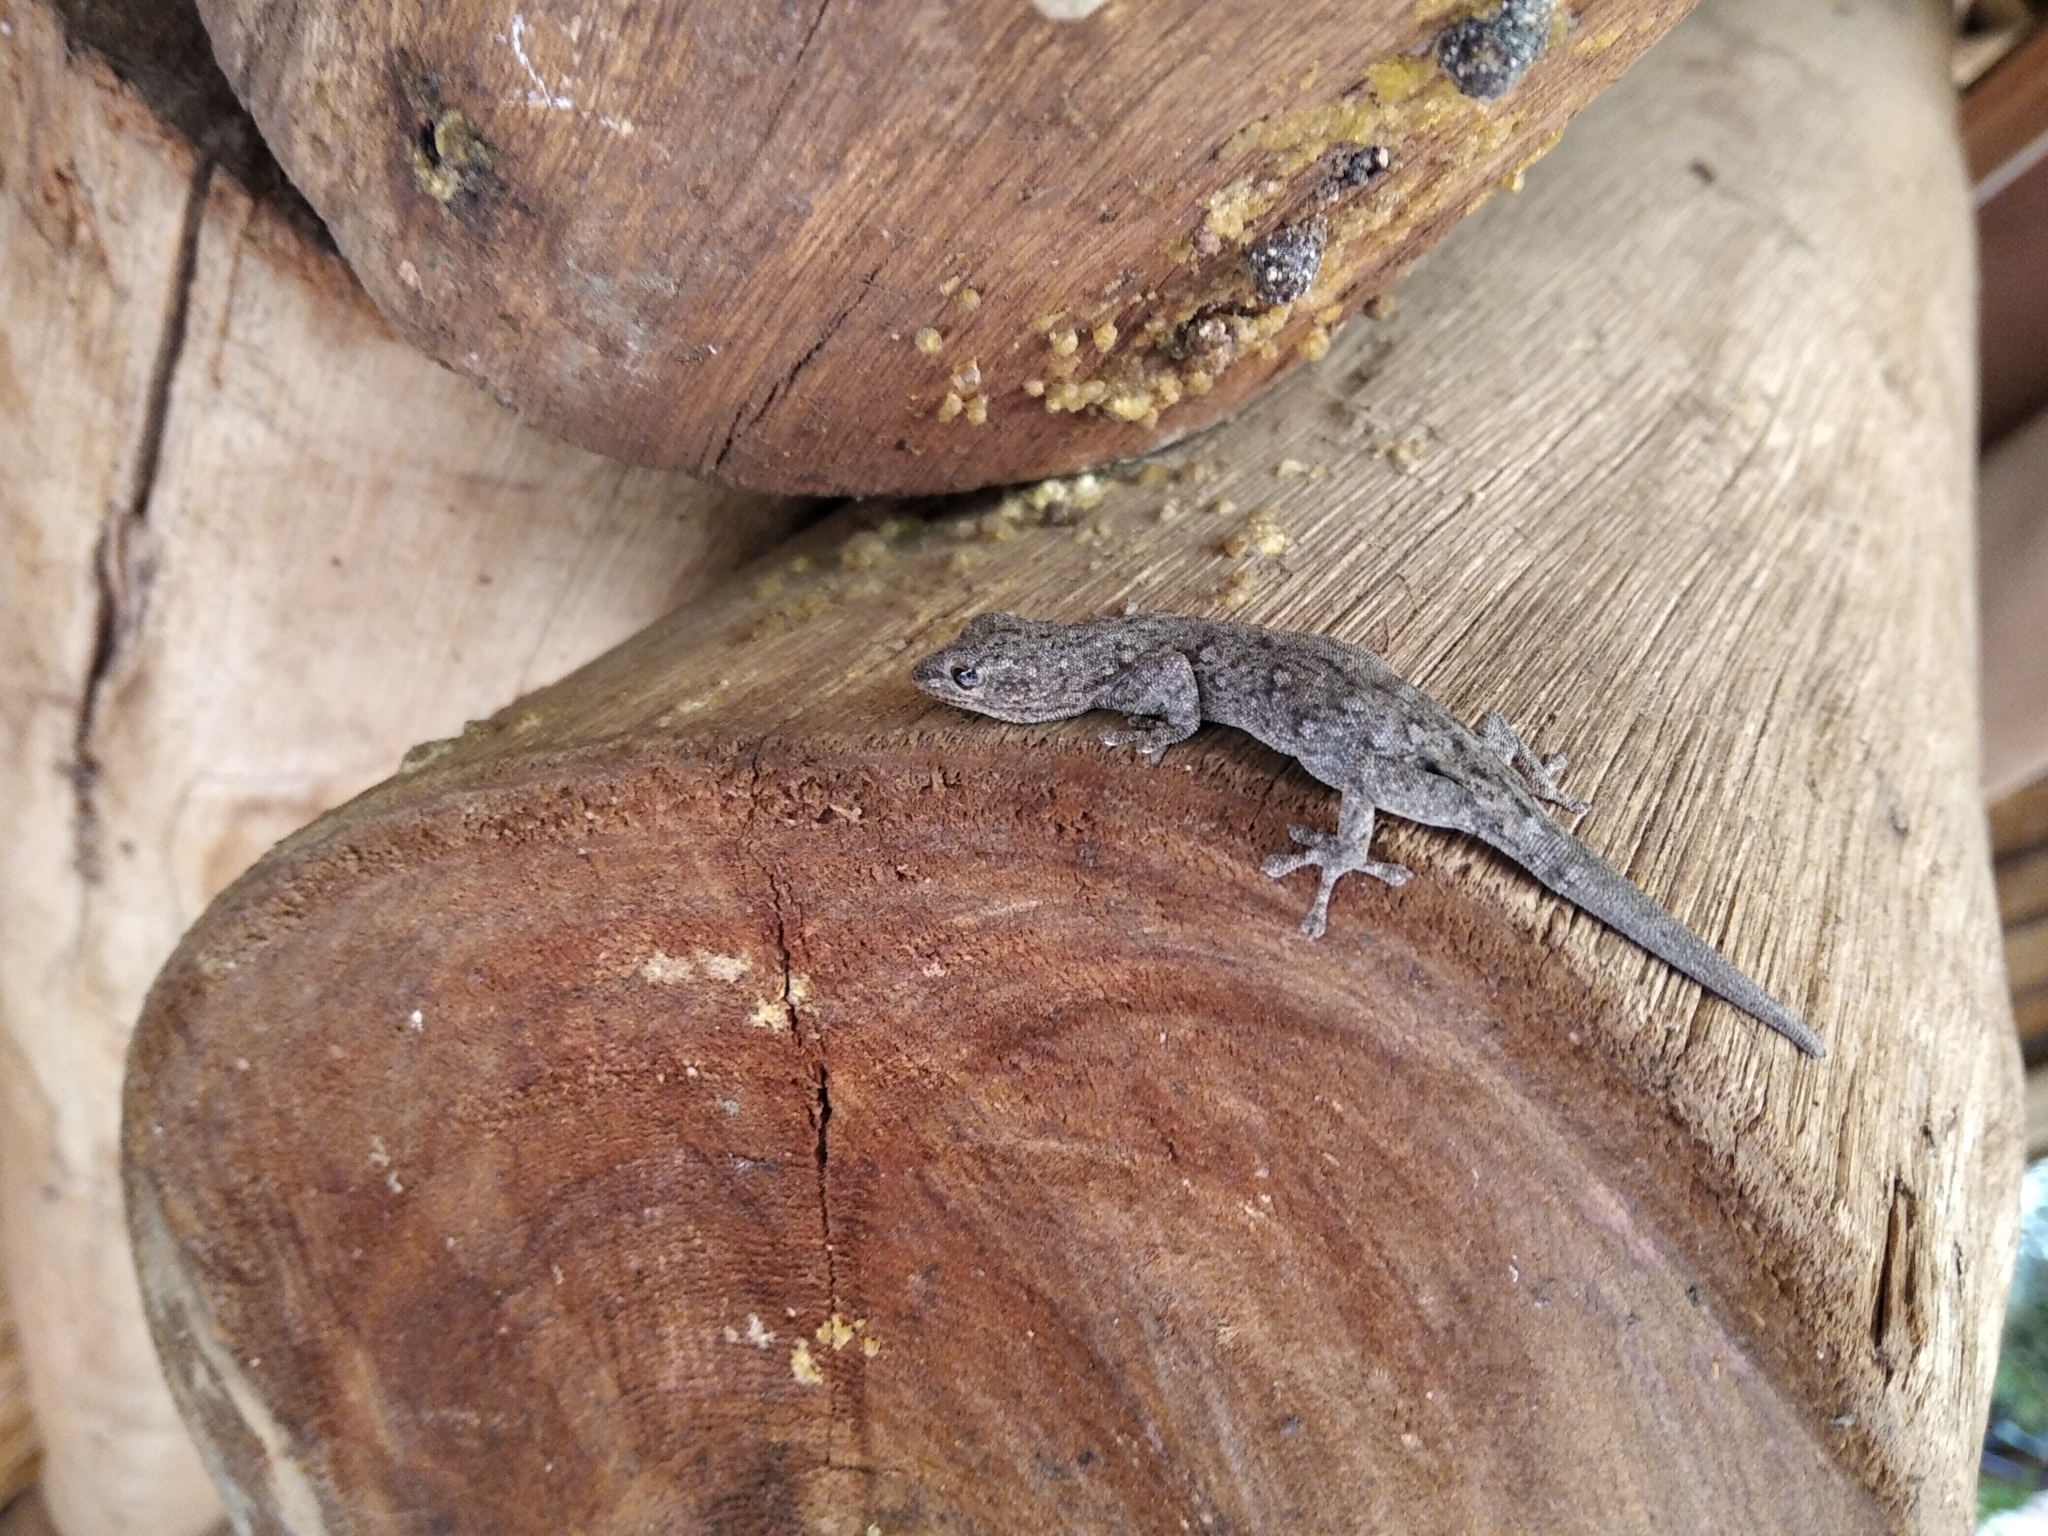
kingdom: Animalia
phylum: Chordata
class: Squamata
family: Gekkonidae
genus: Lygodactylus
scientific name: Lygodactylus chobiensis
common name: Okavango dwarf gecko
